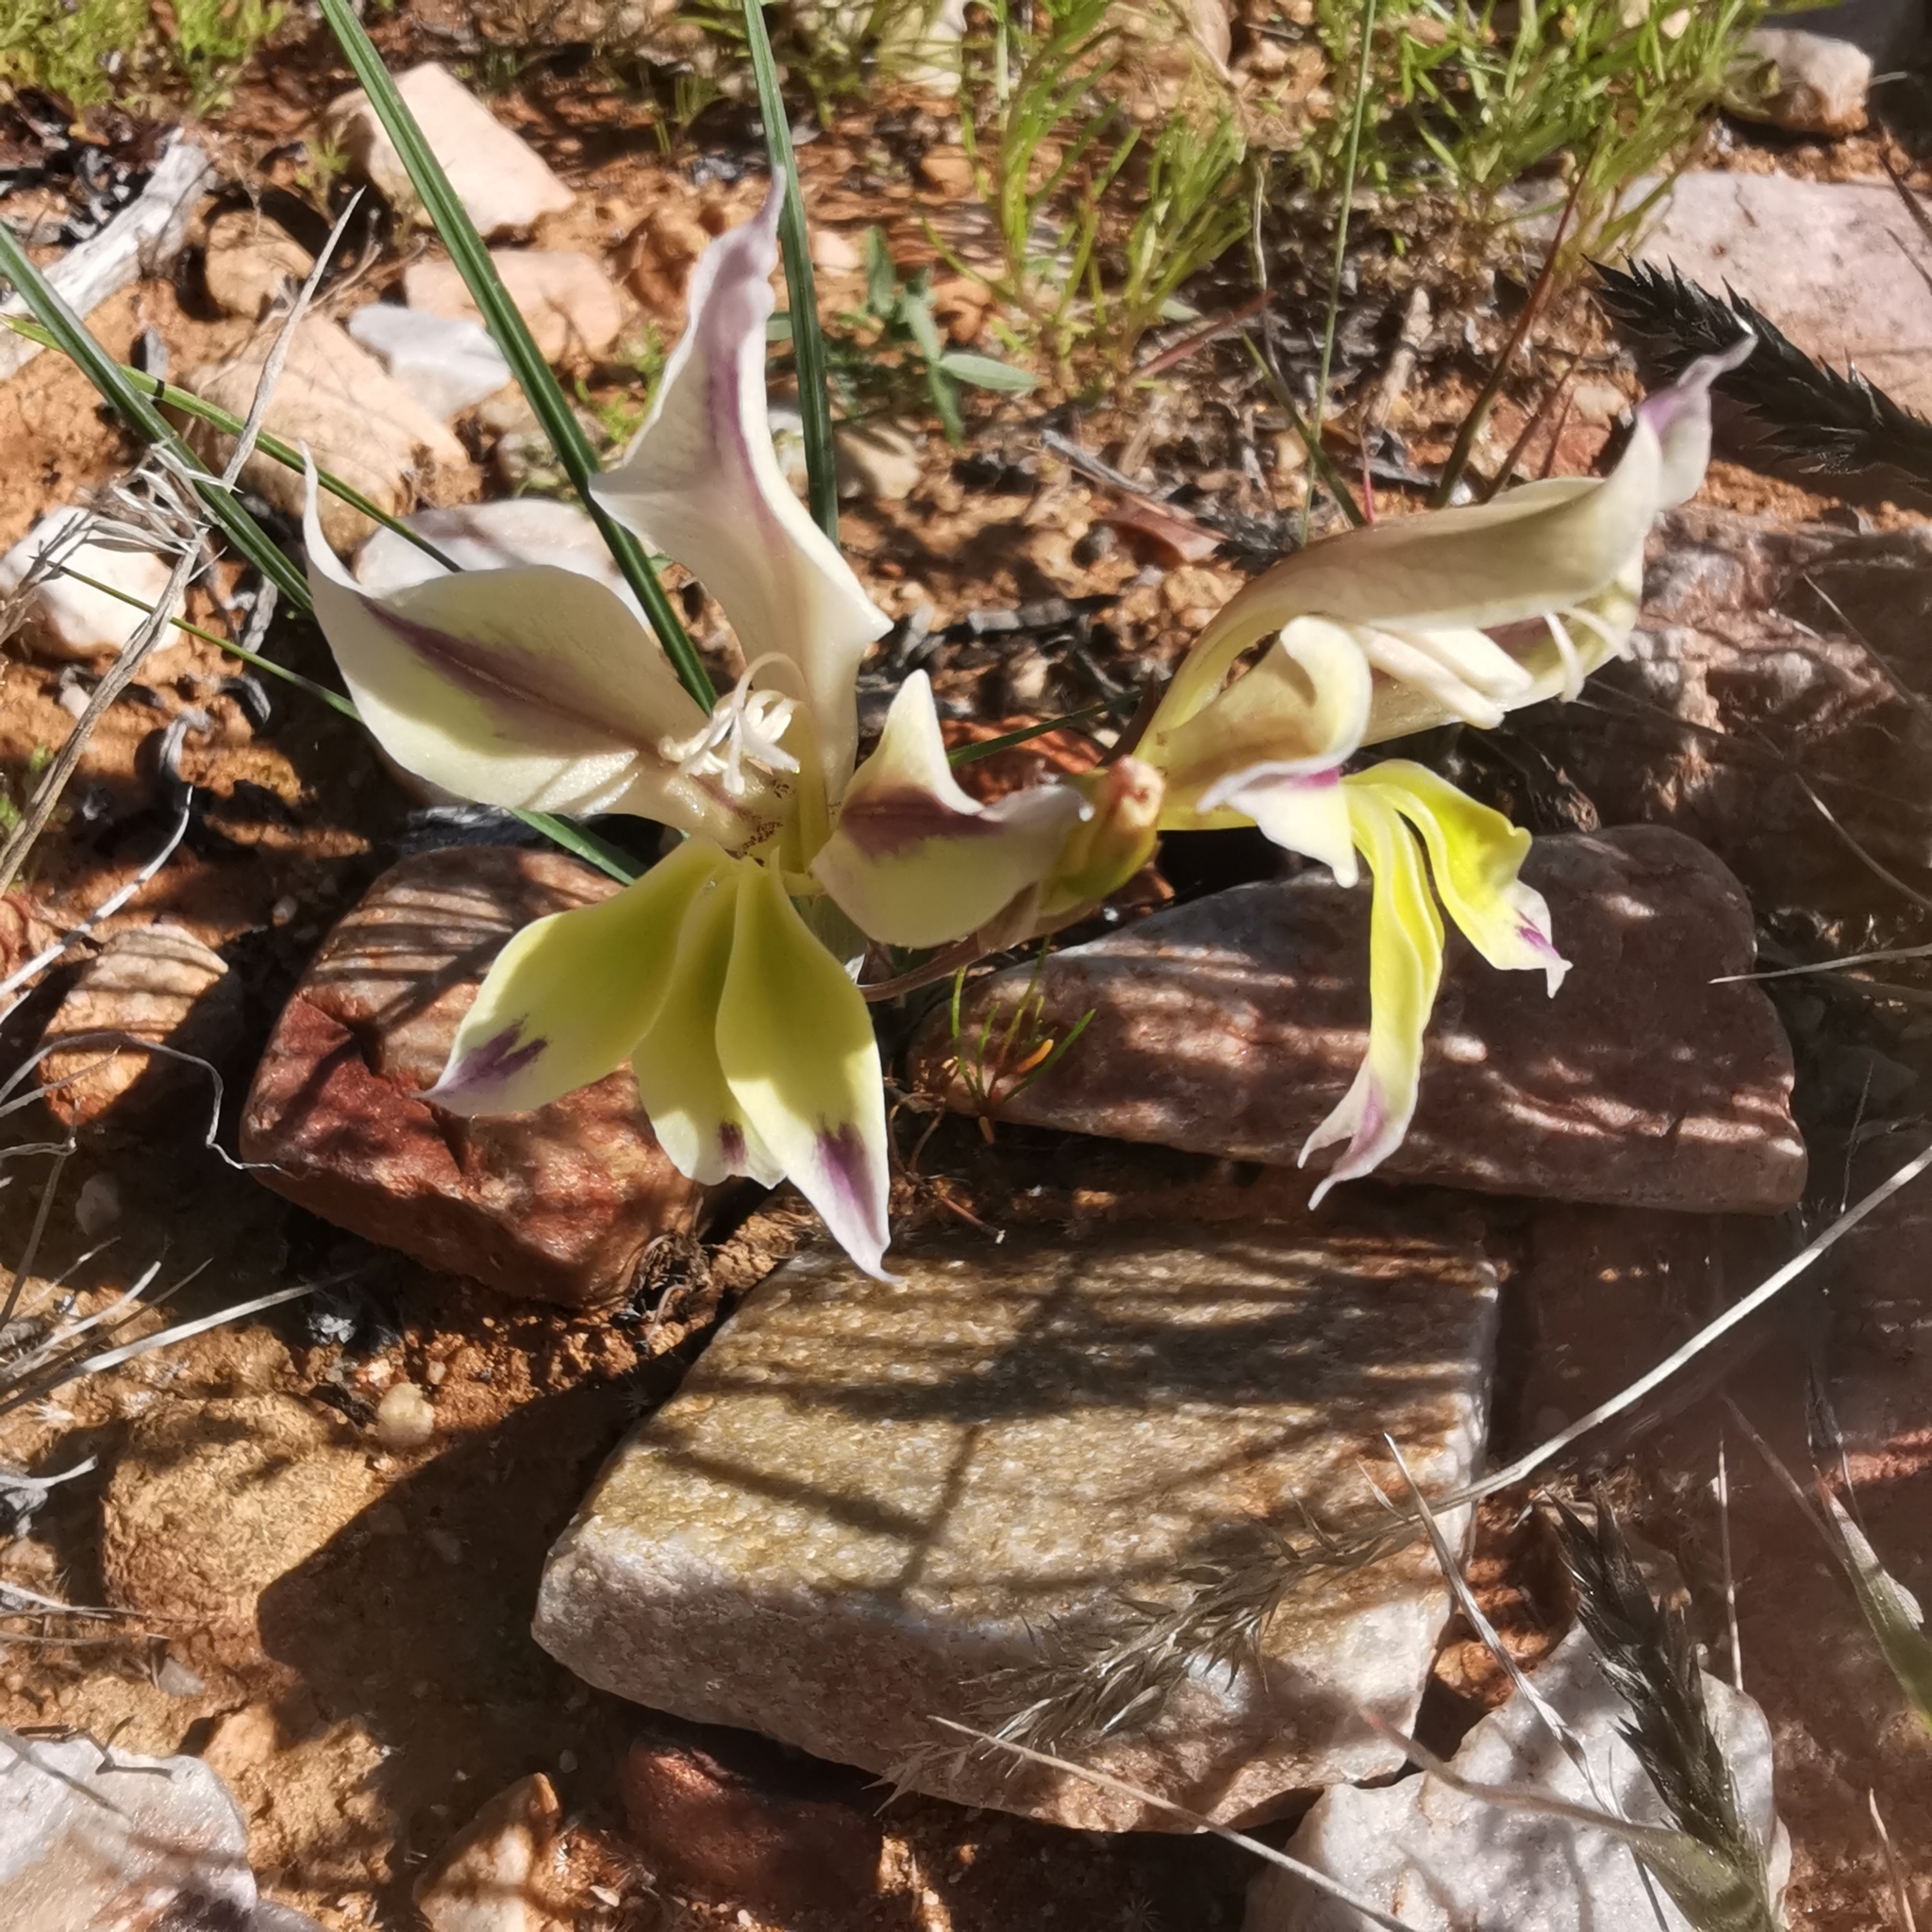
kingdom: Plantae
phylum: Tracheophyta
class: Liliopsida
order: Asparagales
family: Iridaceae
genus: Gladiolus
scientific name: Gladiolus scullyi
